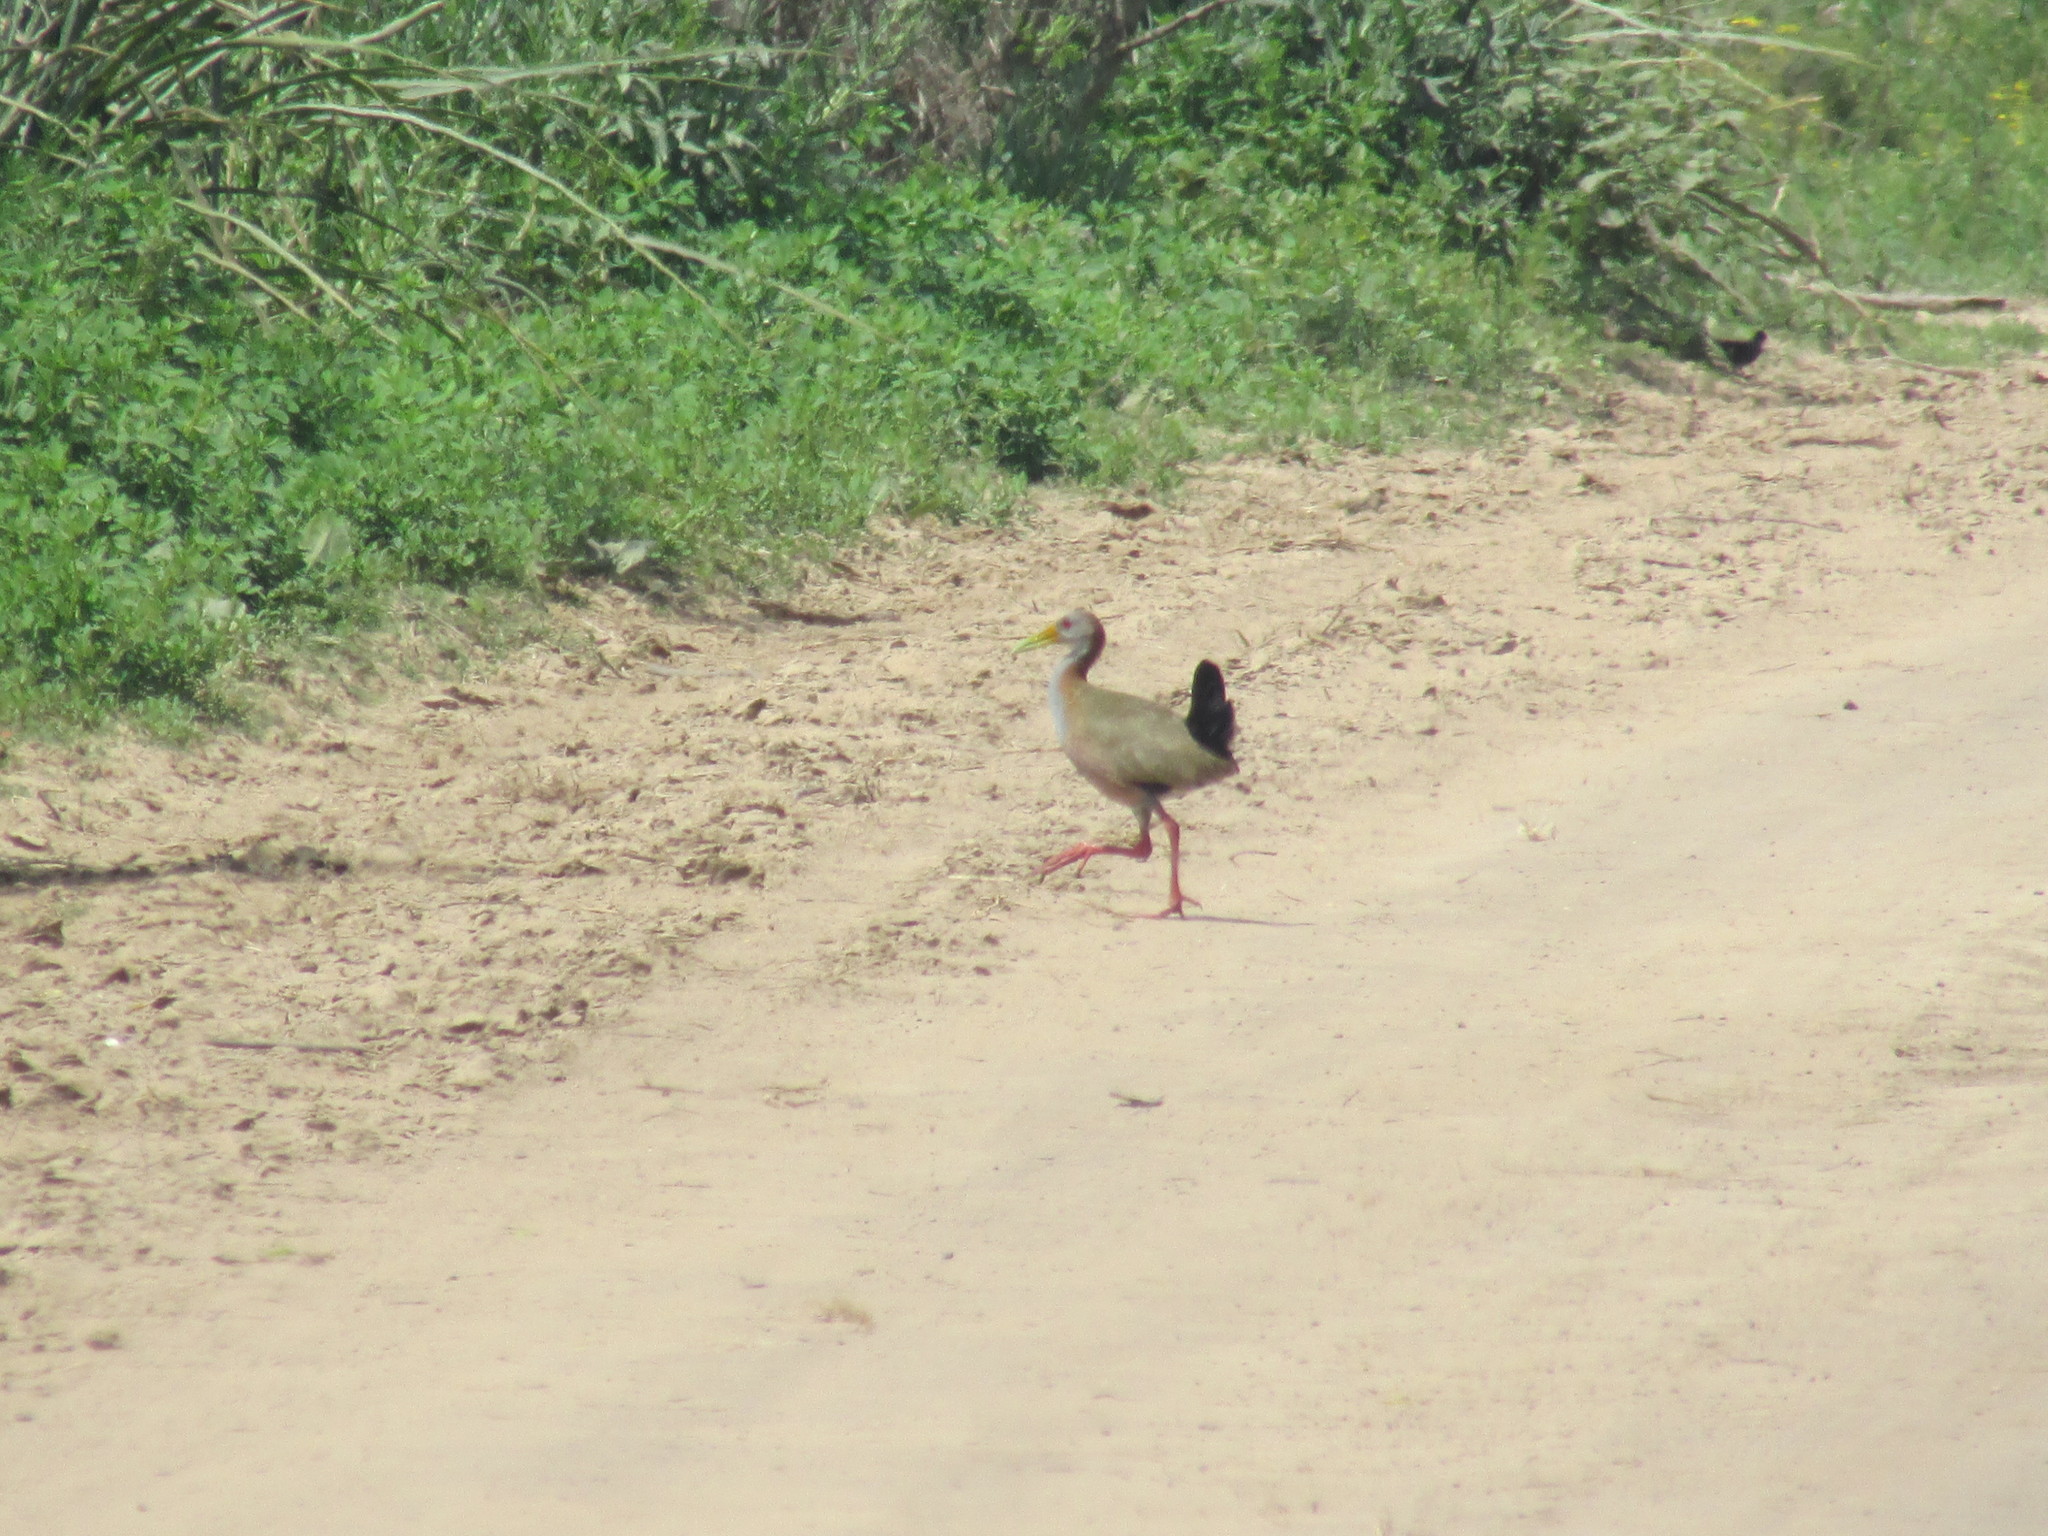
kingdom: Animalia
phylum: Chordata
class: Aves
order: Gruiformes
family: Rallidae
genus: Aramides
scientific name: Aramides ypecaha
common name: Giant wood rail
